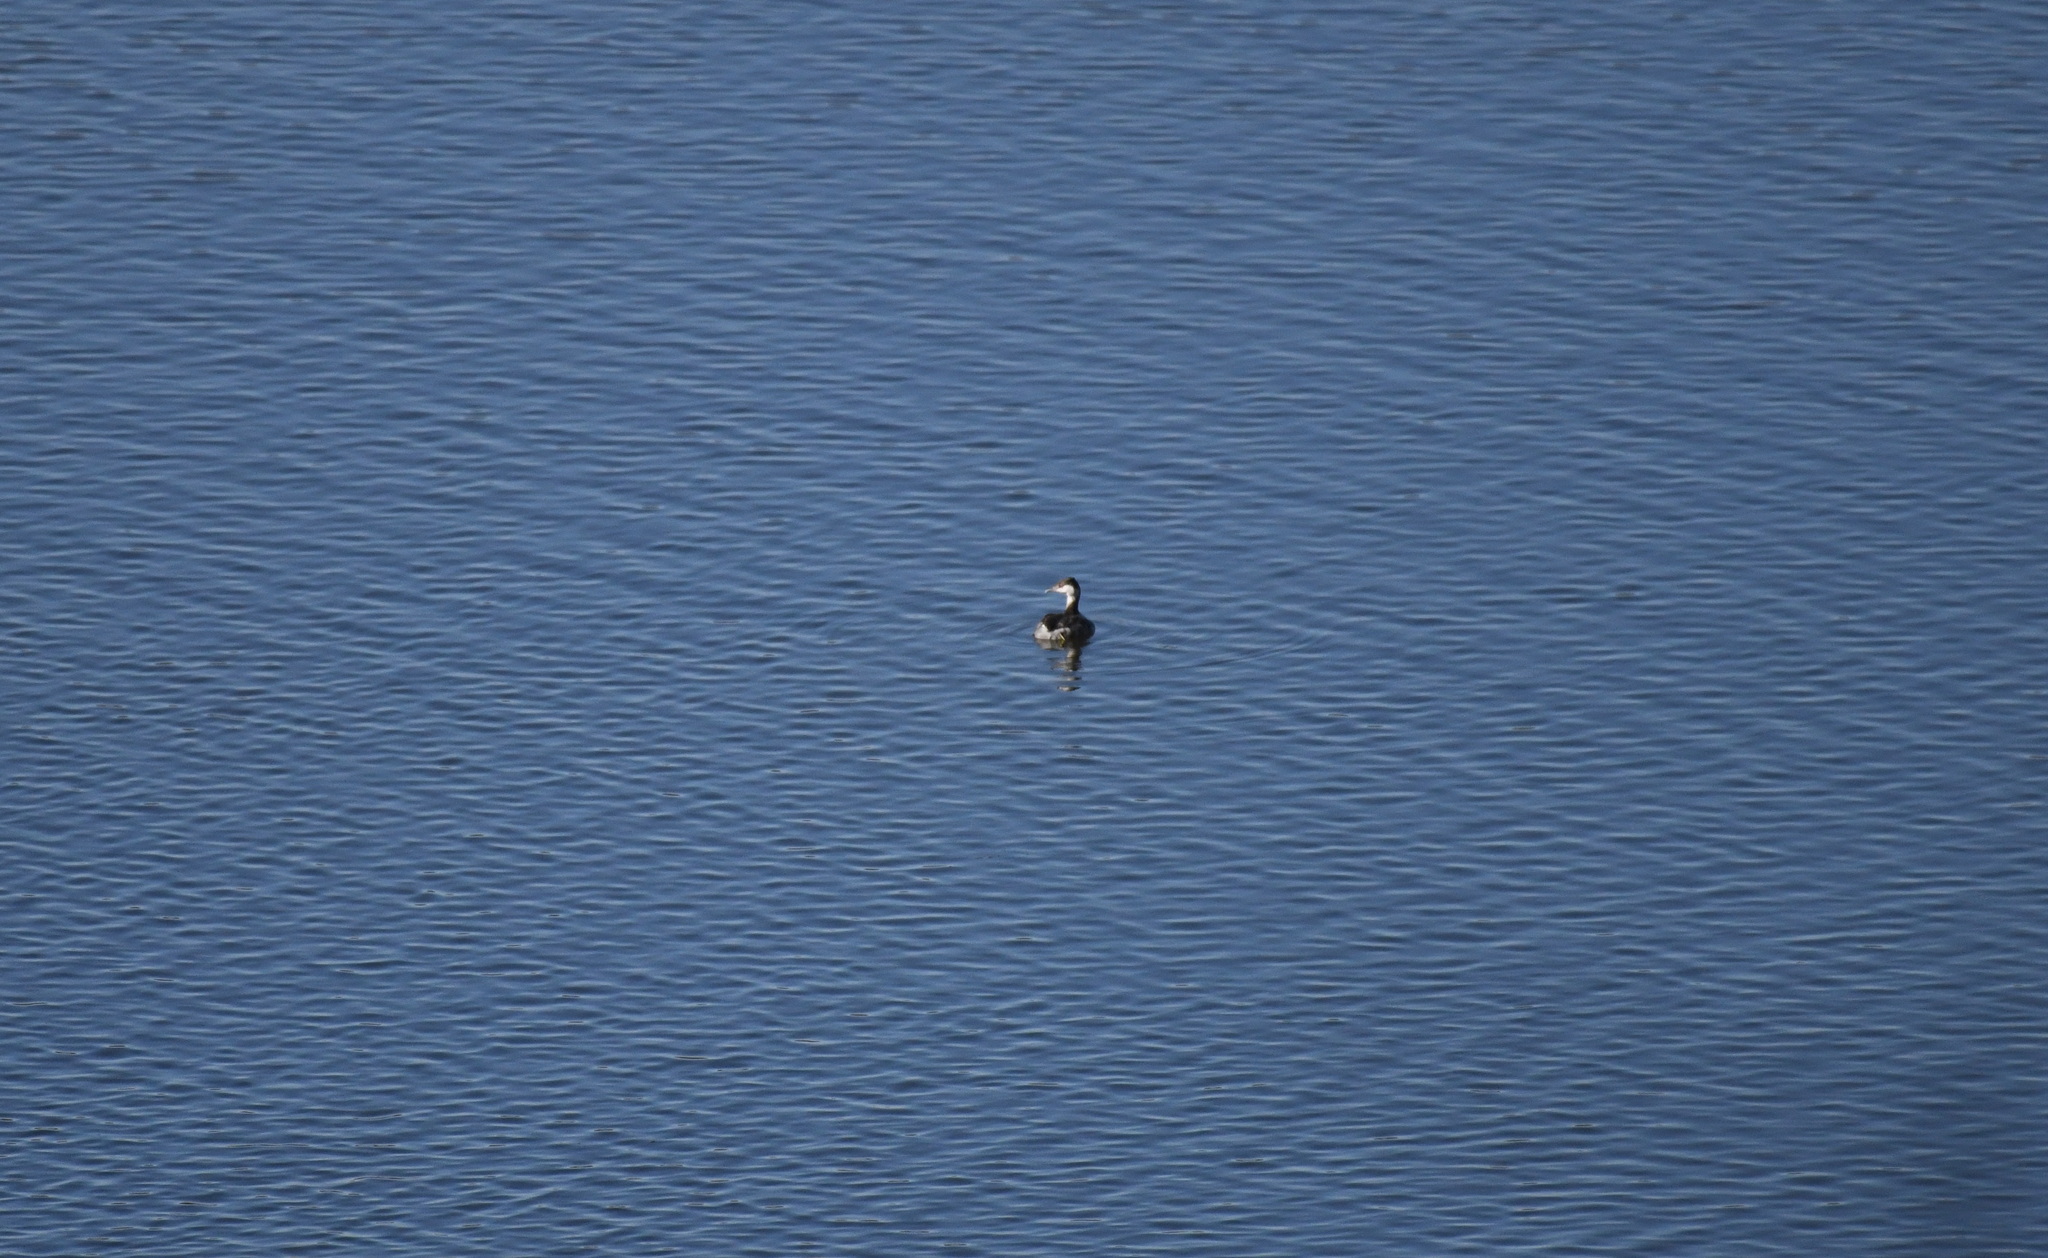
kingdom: Animalia
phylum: Chordata
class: Aves
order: Podicipediformes
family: Podicipedidae
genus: Podiceps
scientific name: Podiceps auritus
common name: Horned grebe
